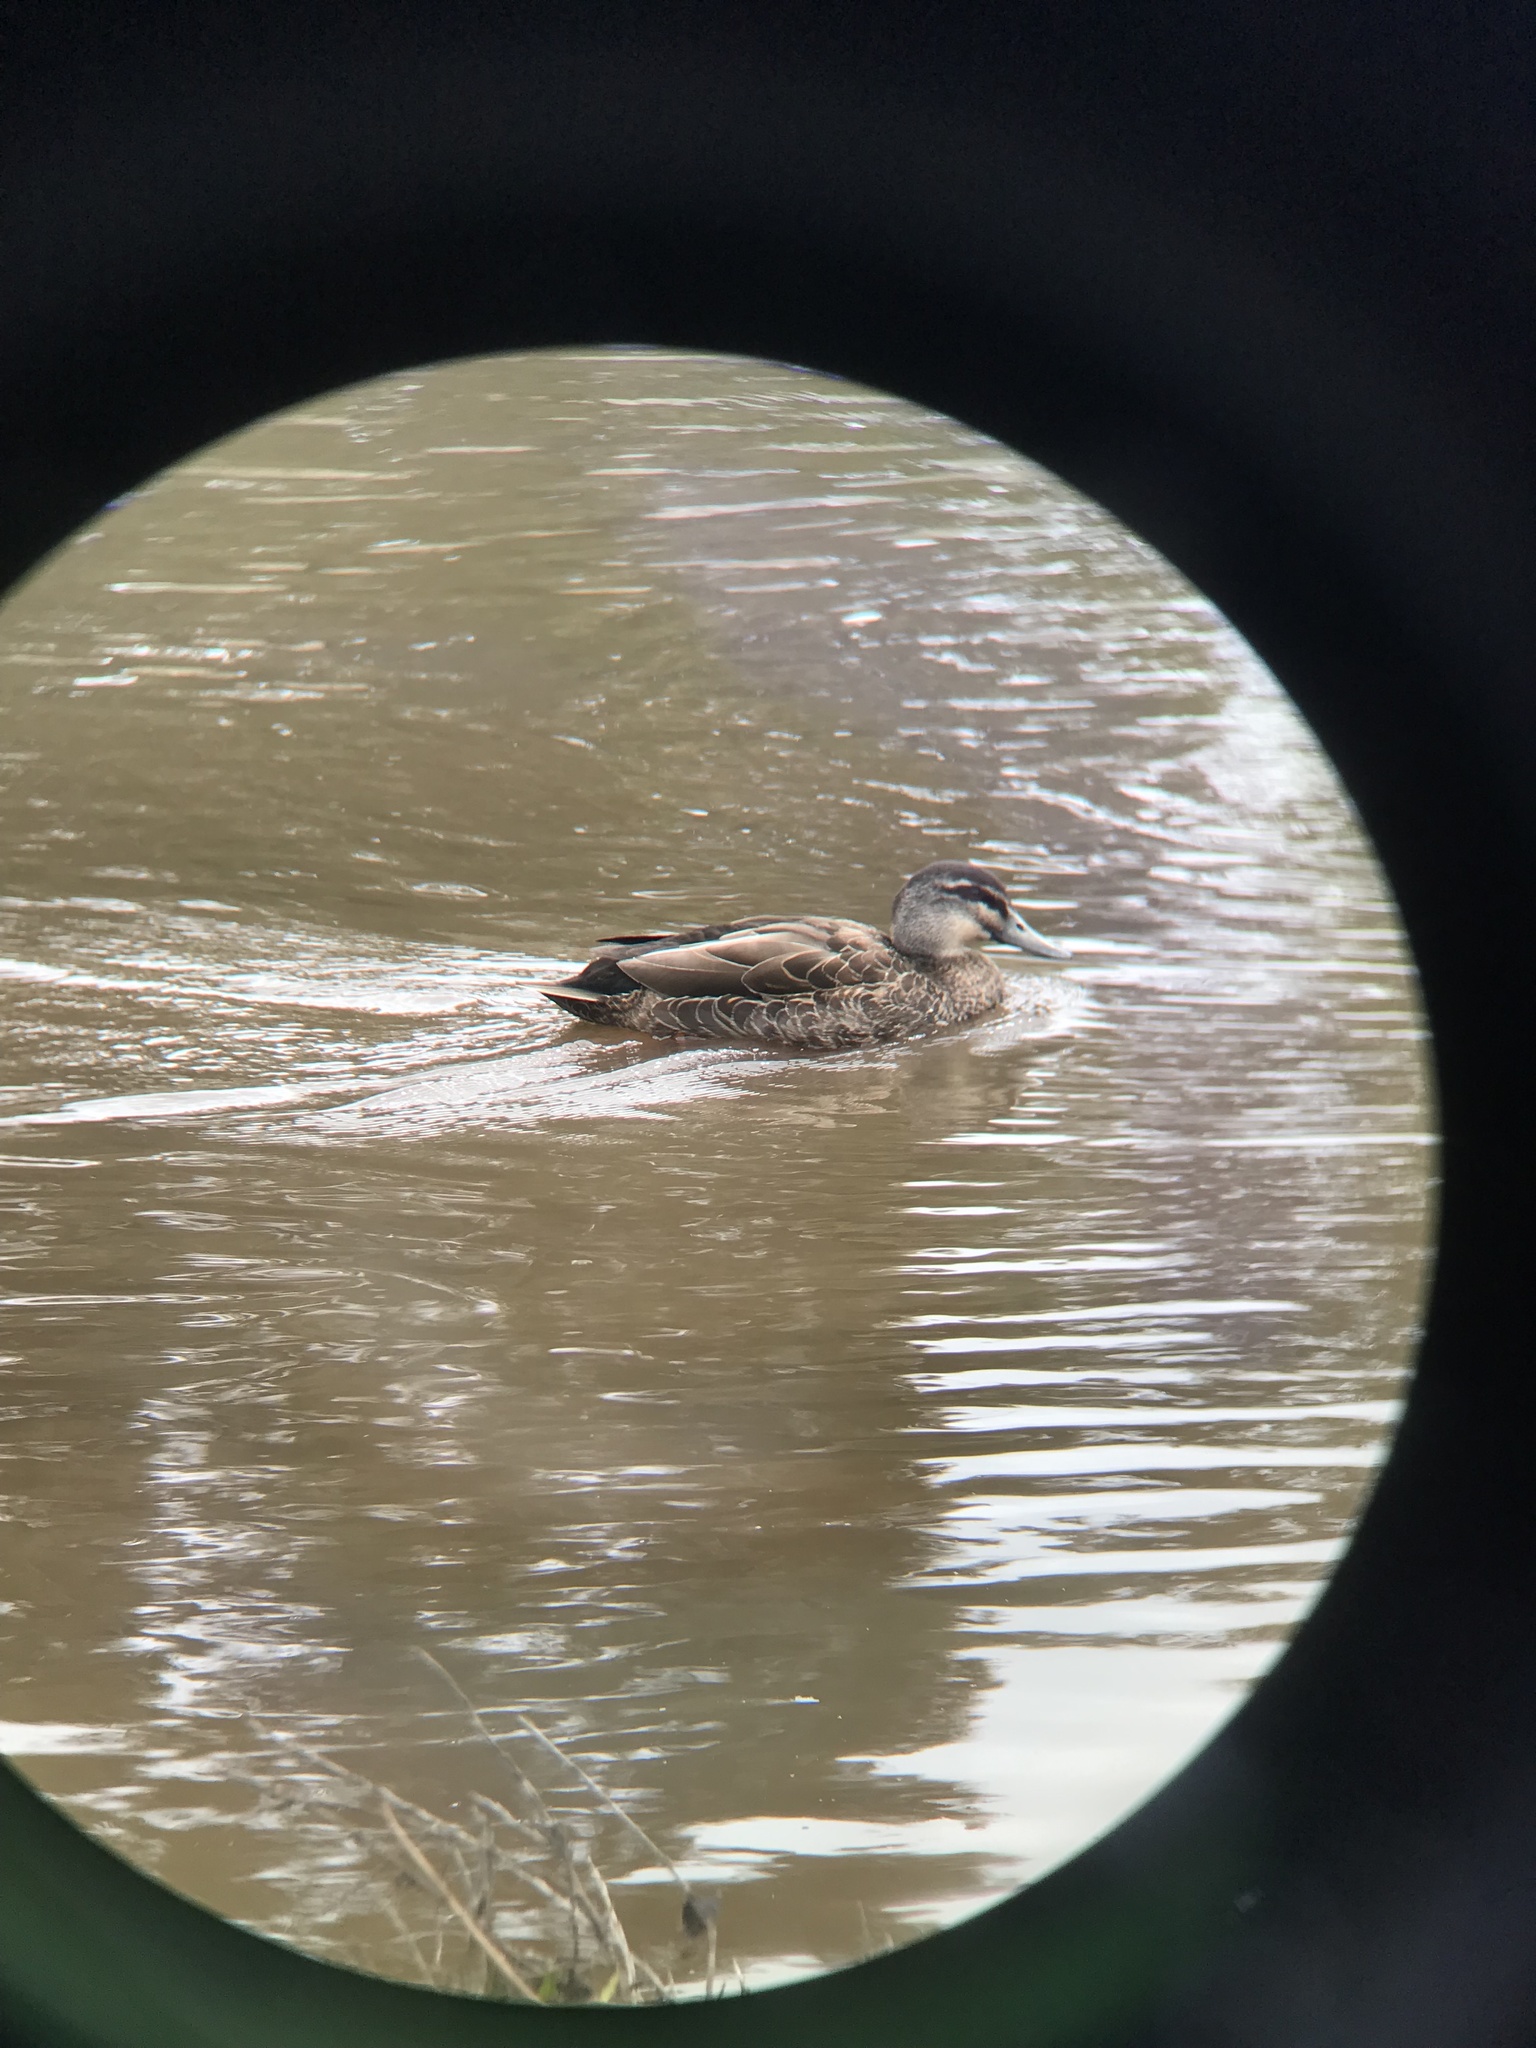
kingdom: Animalia
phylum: Chordata
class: Aves
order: Anseriformes
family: Anatidae
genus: Anas
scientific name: Anas
